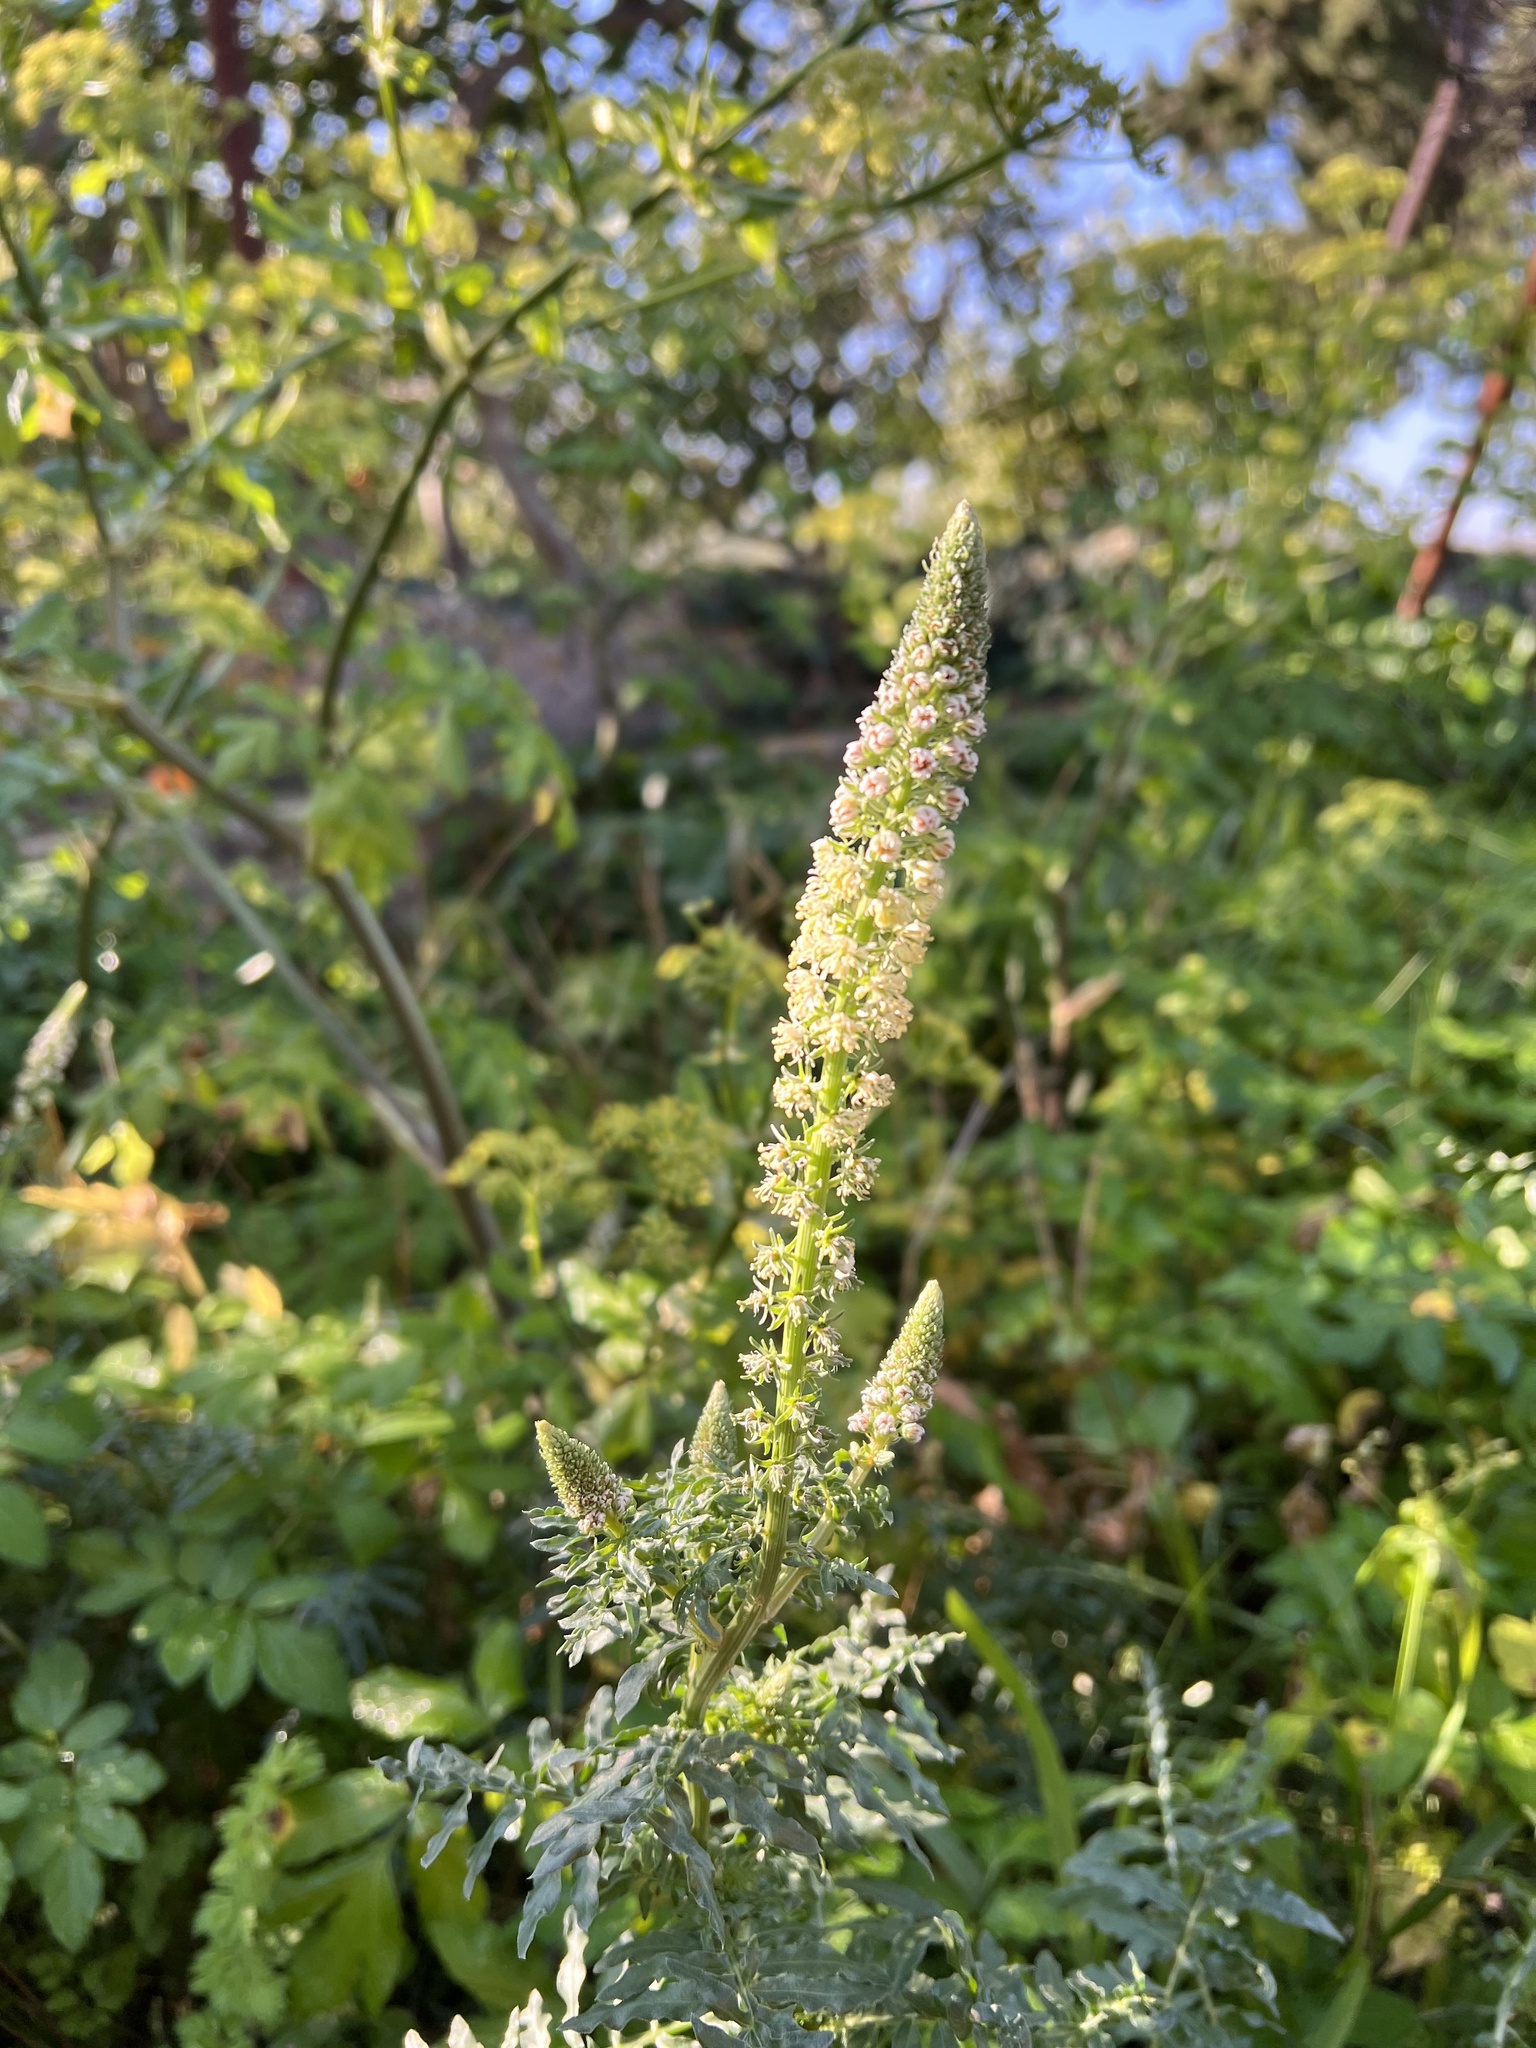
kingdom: Plantae
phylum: Tracheophyta
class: Magnoliopsida
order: Brassicales
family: Resedaceae
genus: Reseda
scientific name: Reseda alba
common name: White mignonette
